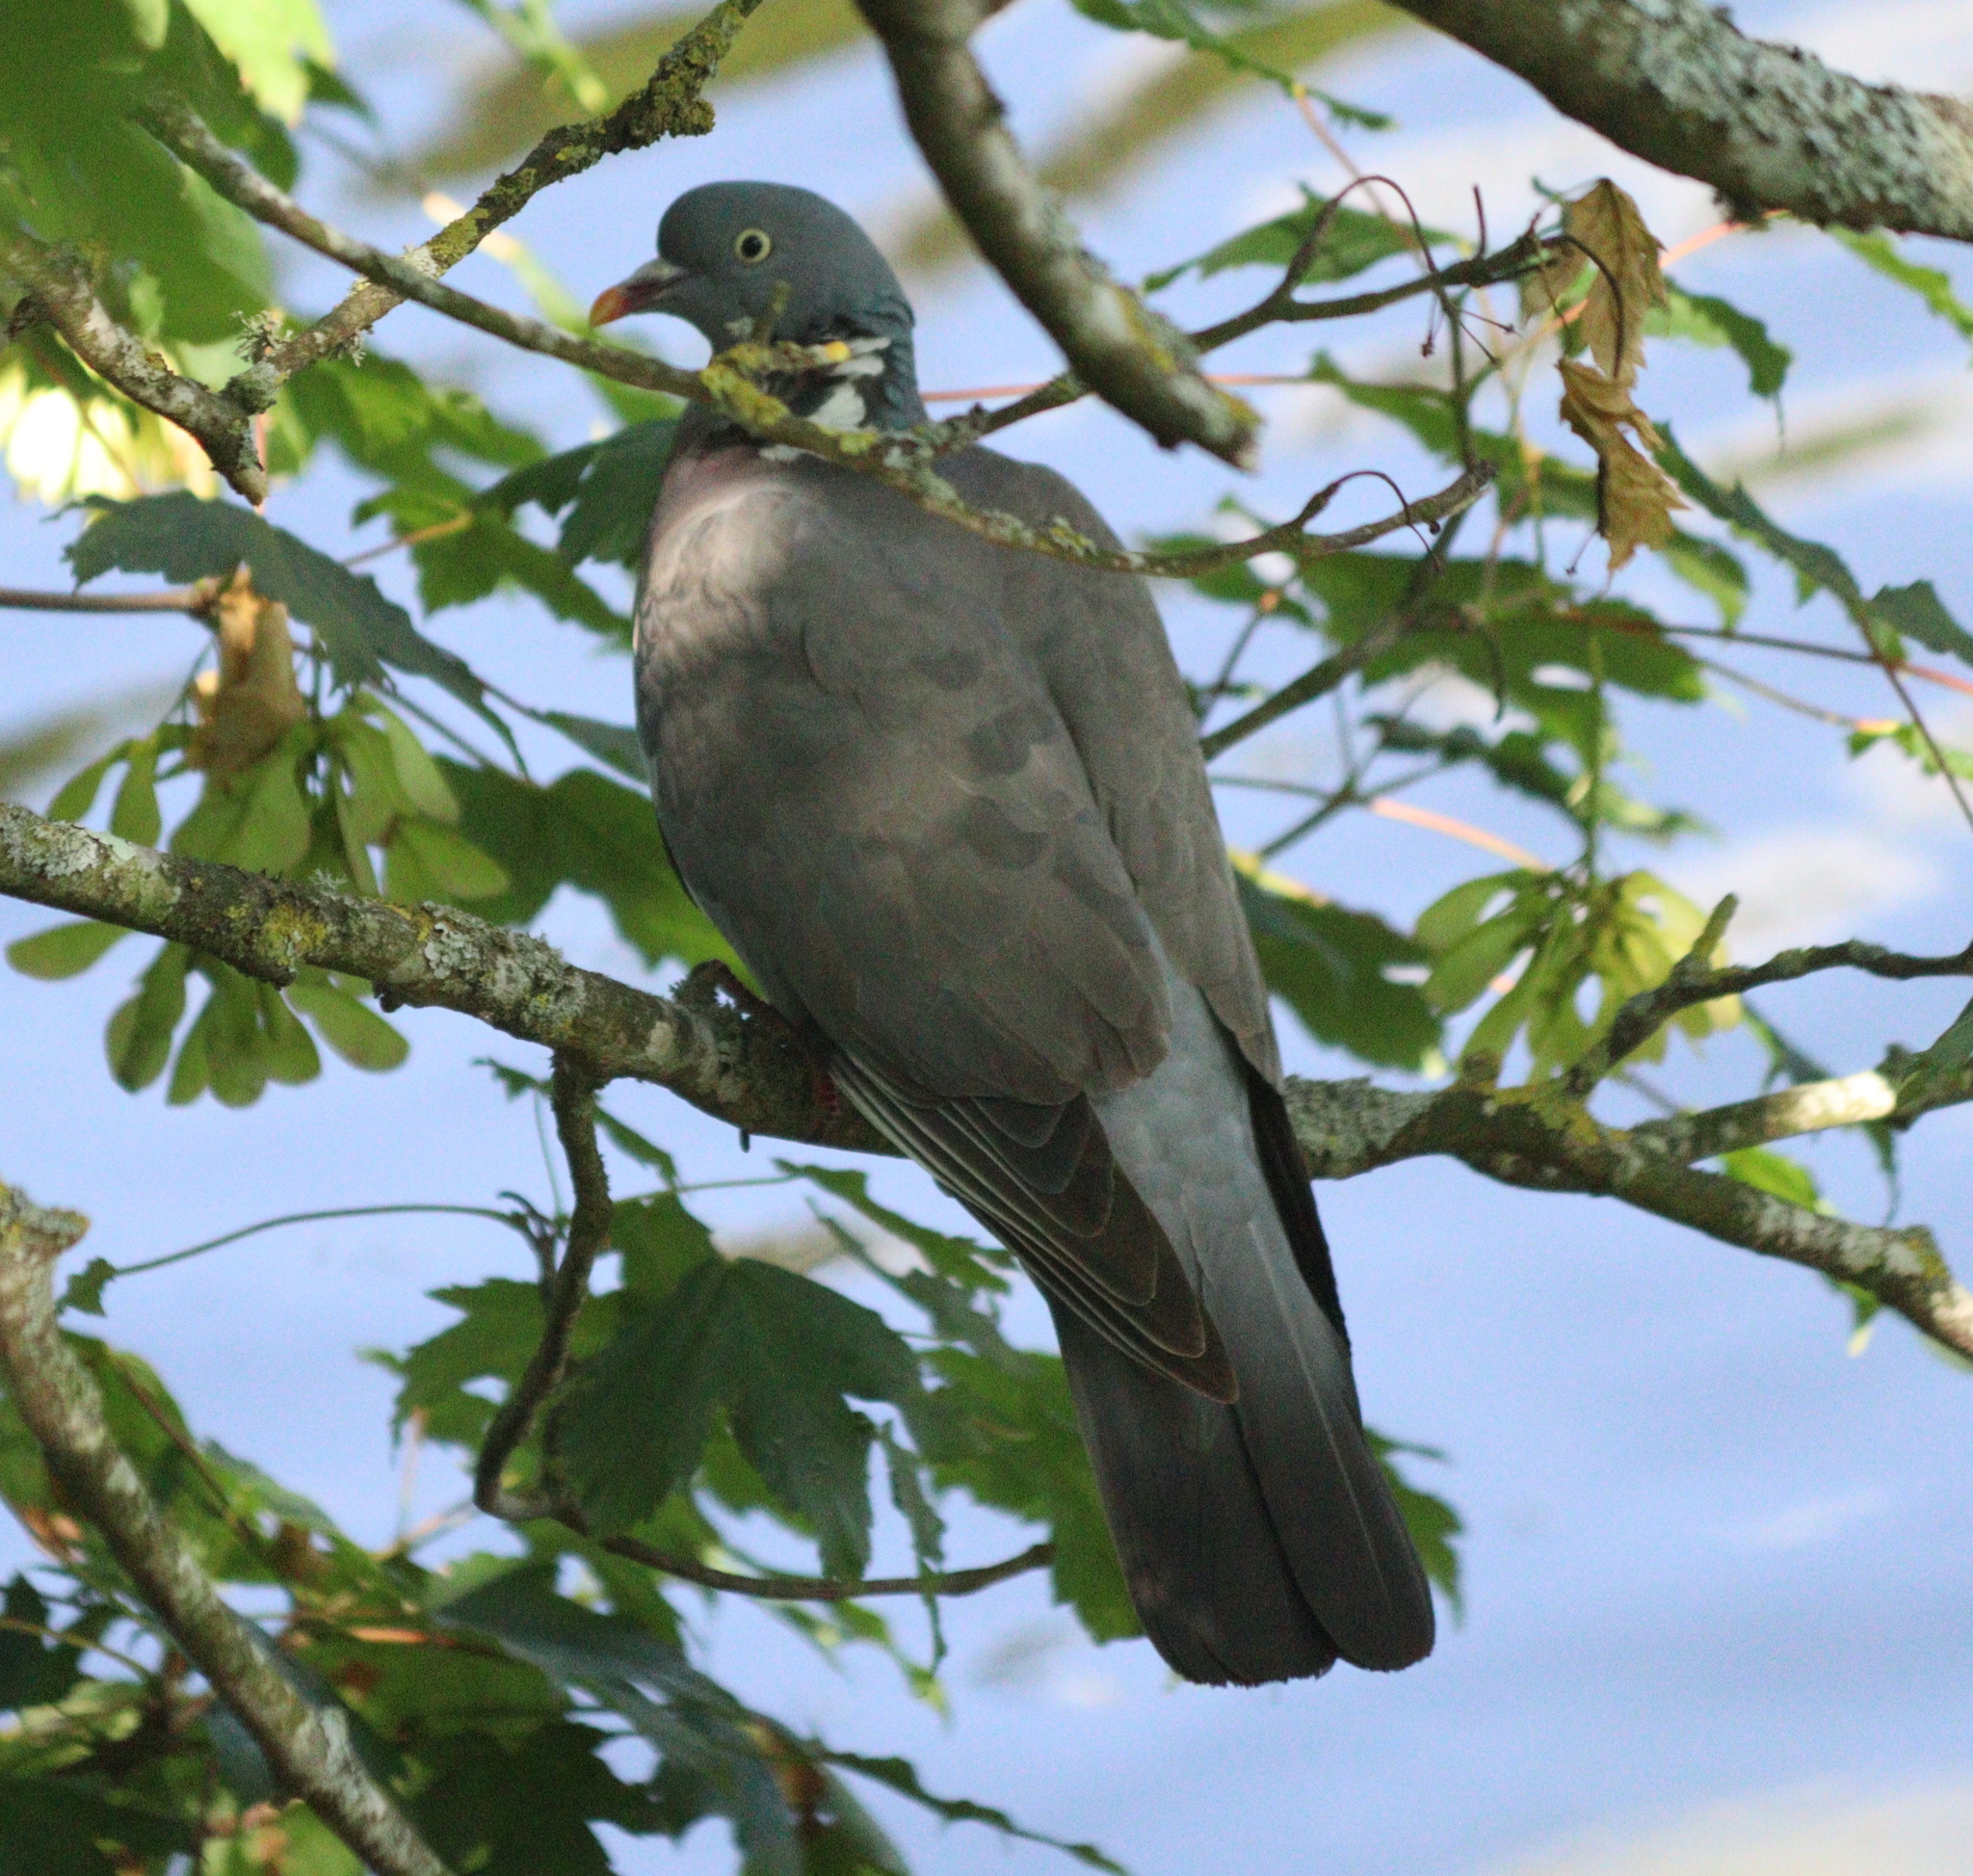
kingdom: Animalia
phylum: Chordata
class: Aves
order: Columbiformes
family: Columbidae
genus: Columba
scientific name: Columba palumbus
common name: Common wood pigeon
